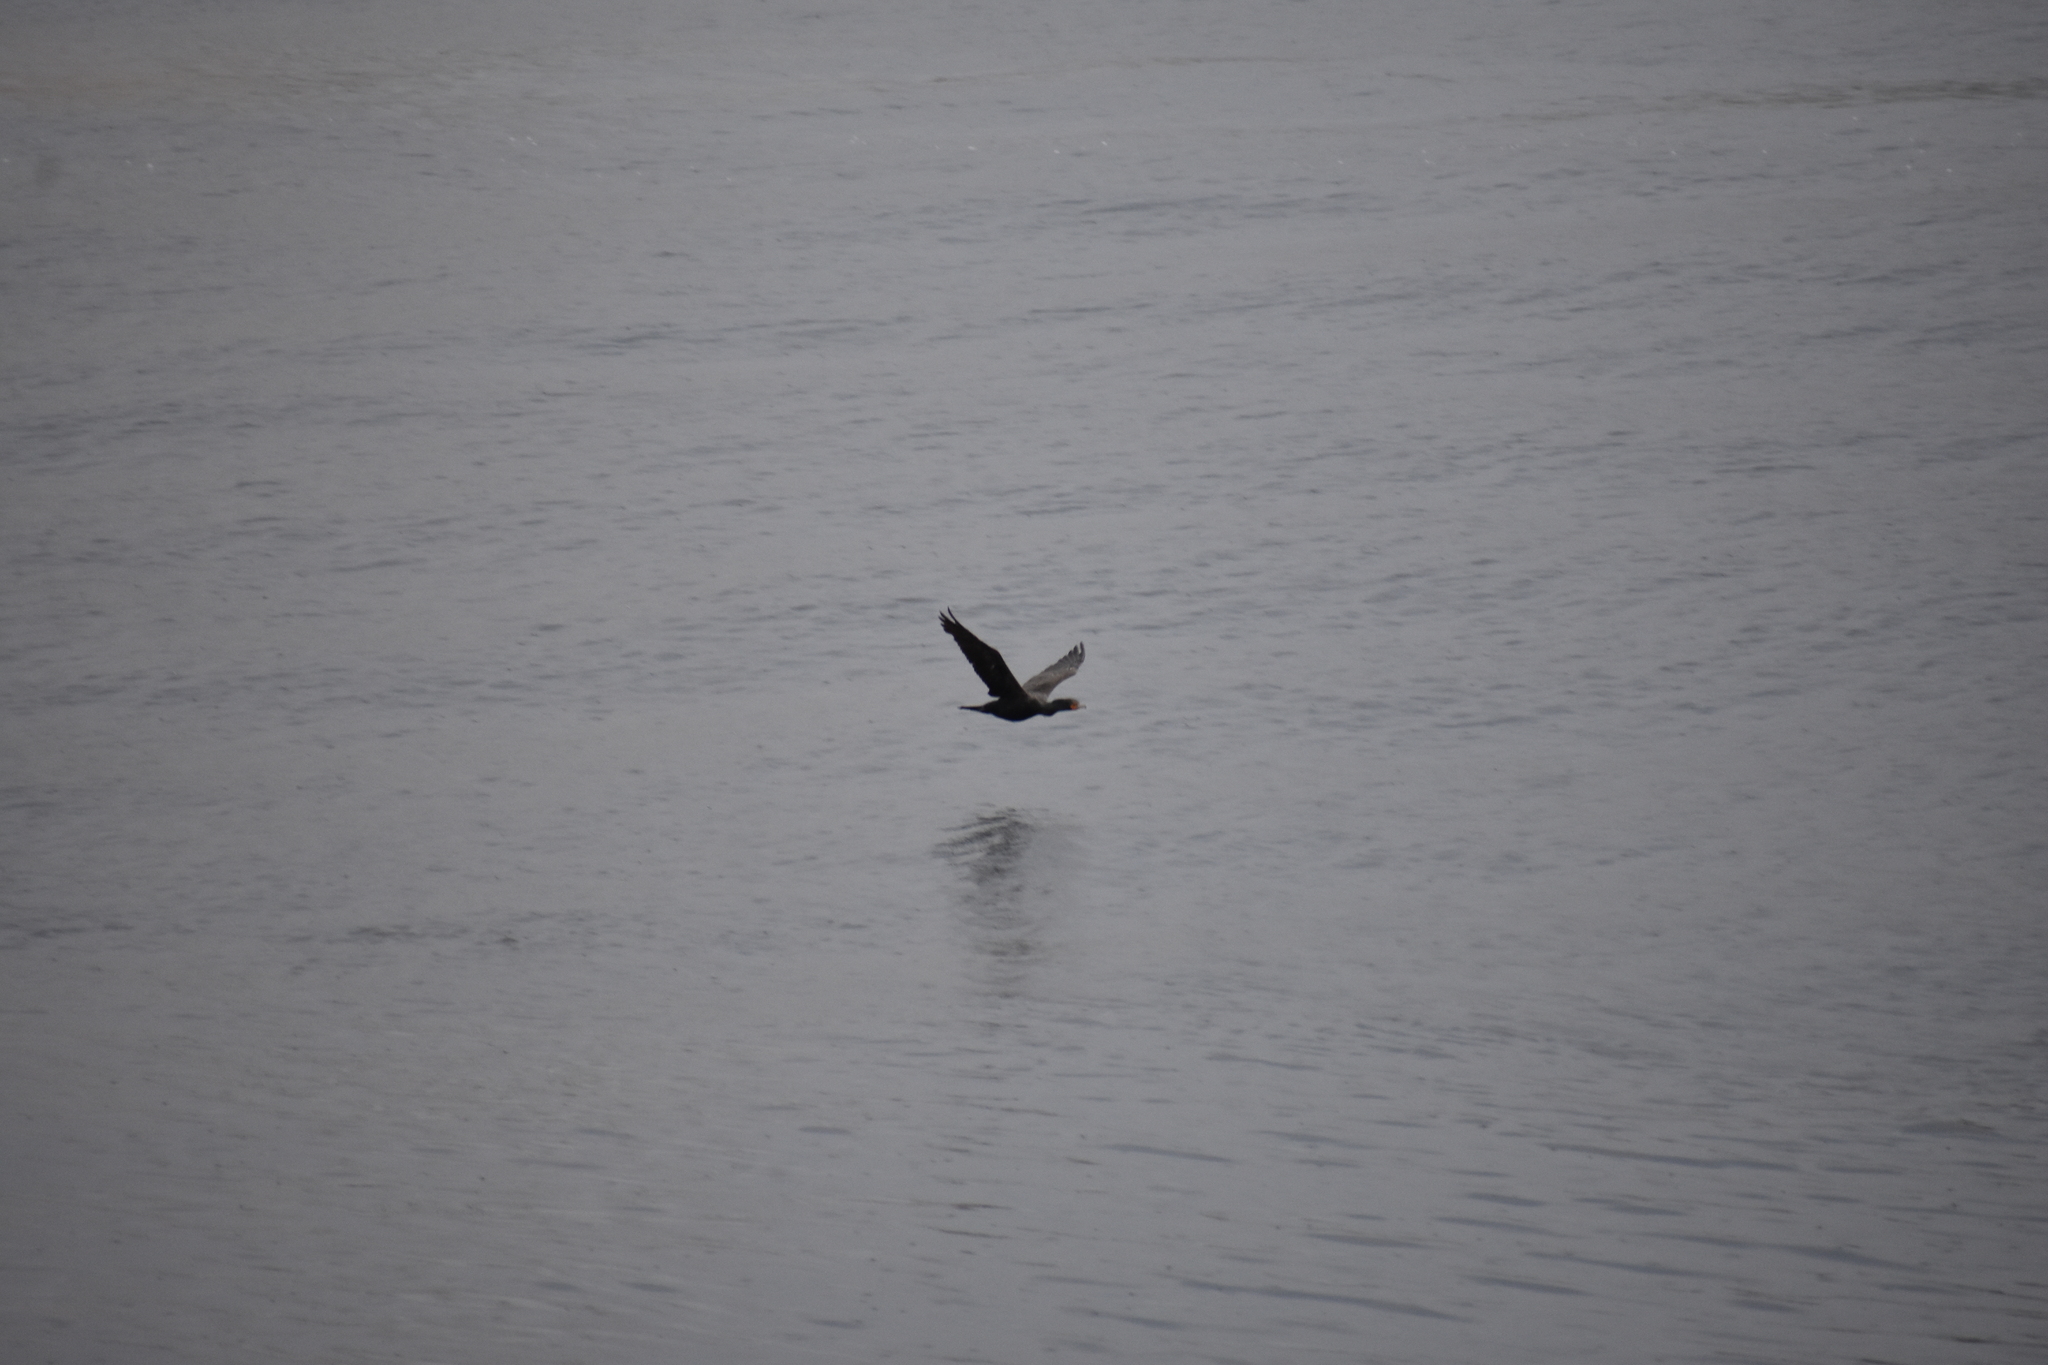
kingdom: Animalia
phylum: Chordata
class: Aves
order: Suliformes
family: Phalacrocoracidae
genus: Phalacrocorax
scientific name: Phalacrocorax auritus
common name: Double-crested cormorant
